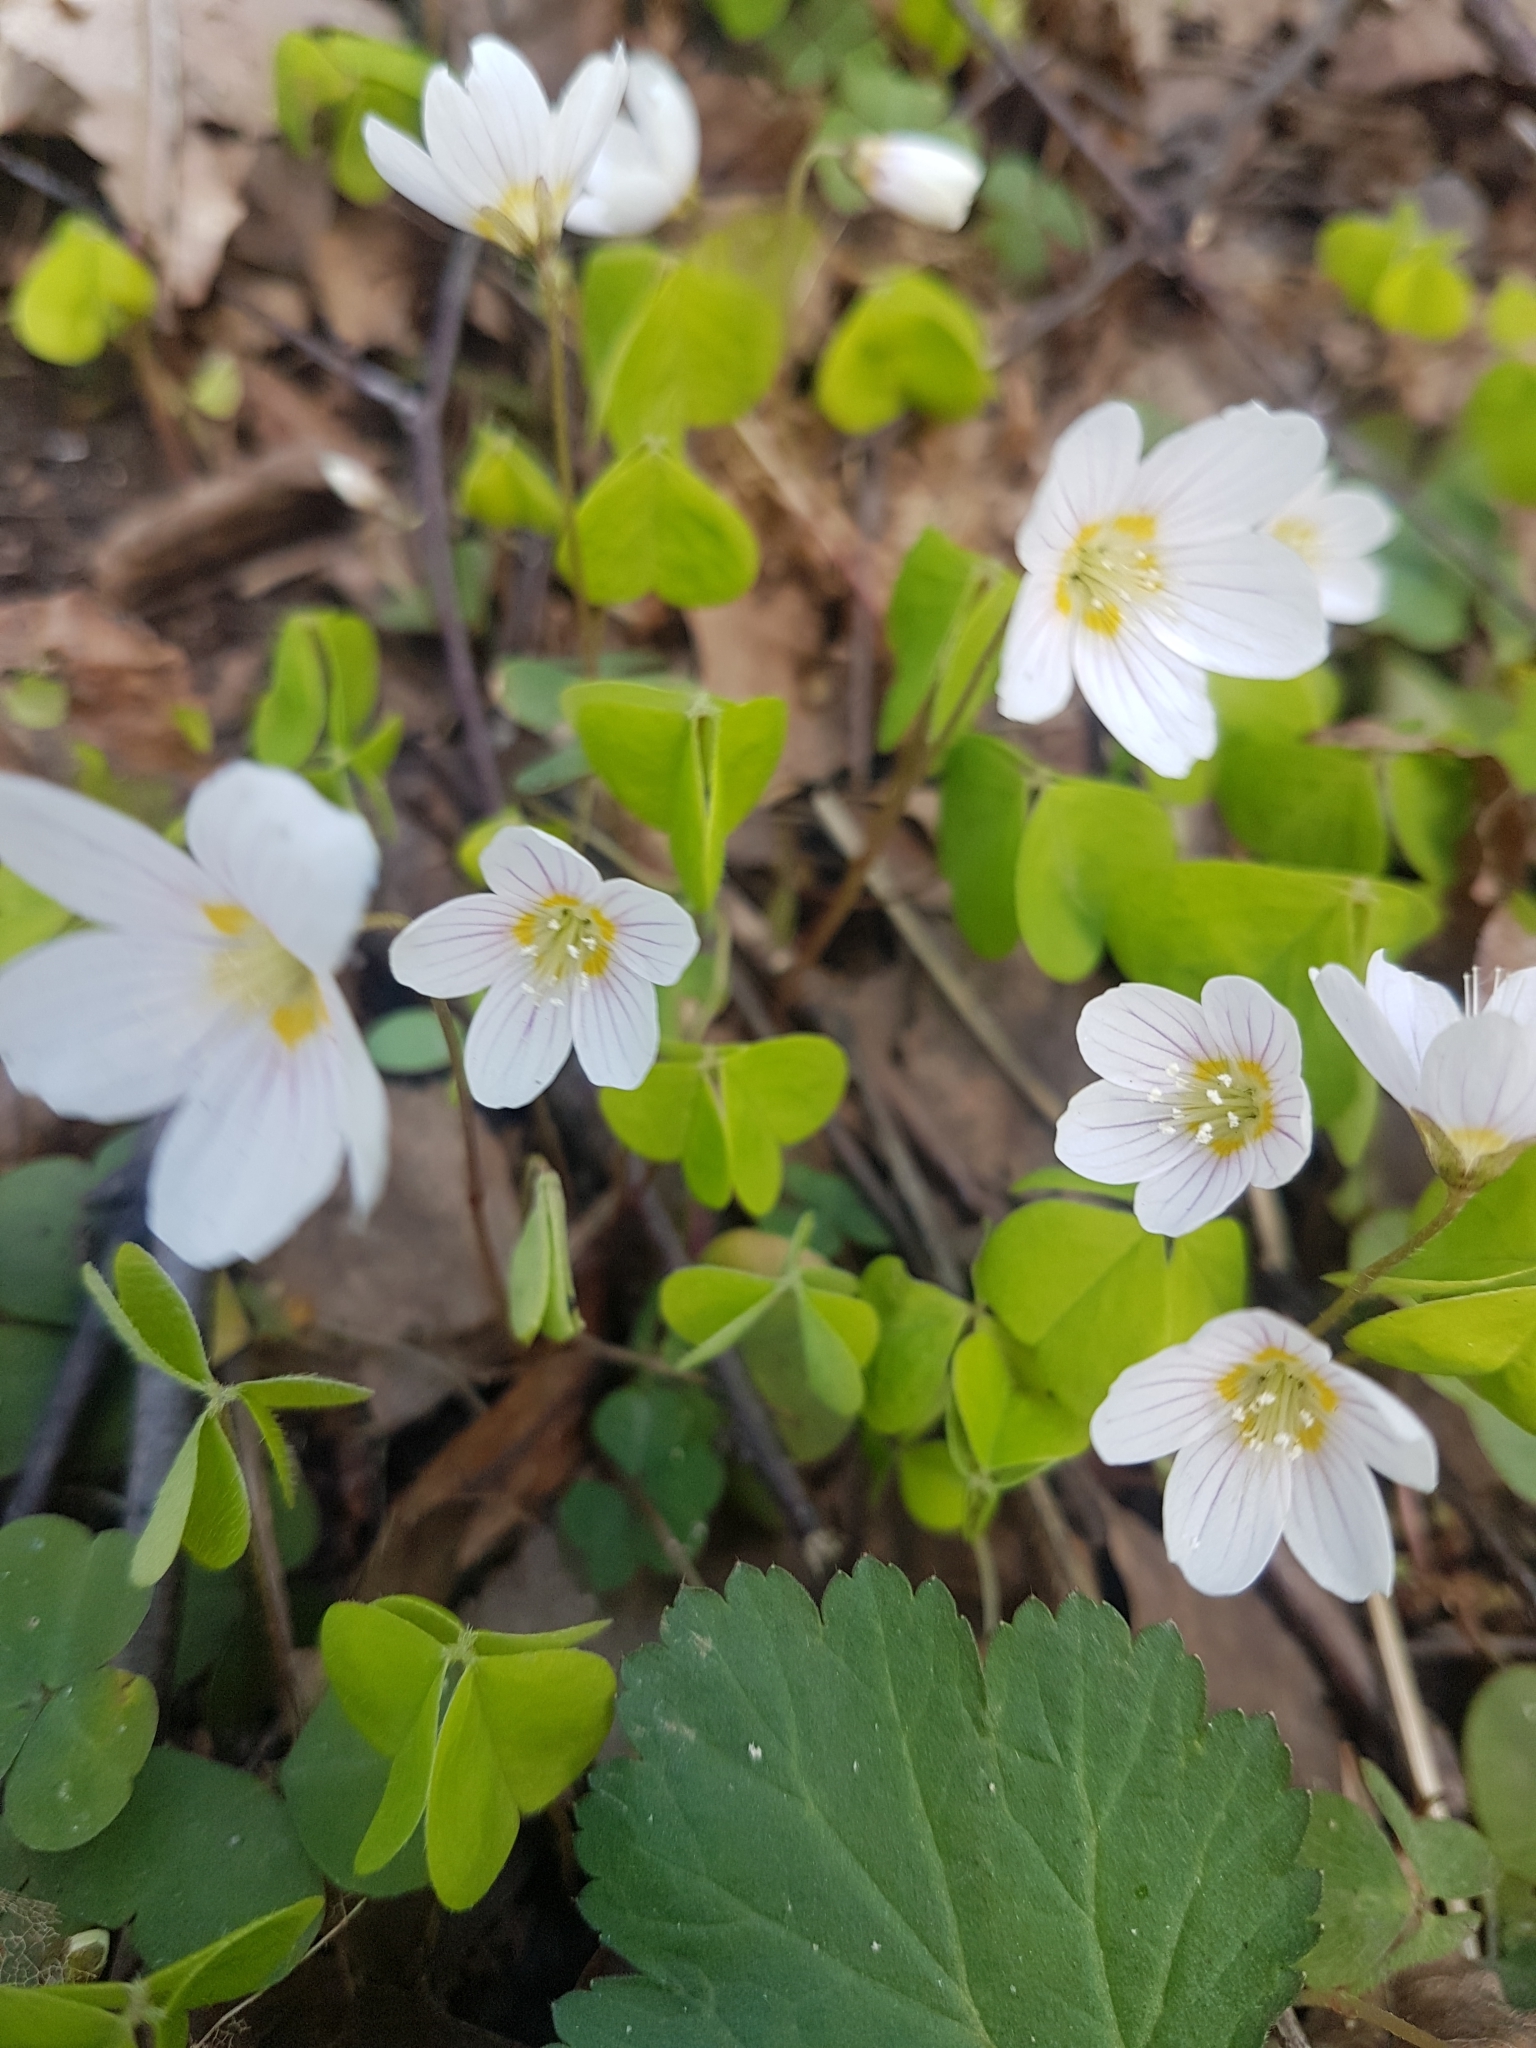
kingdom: Plantae
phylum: Tracheophyta
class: Magnoliopsida
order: Oxalidales
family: Oxalidaceae
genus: Oxalis
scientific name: Oxalis acetosella
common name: Wood-sorrel
